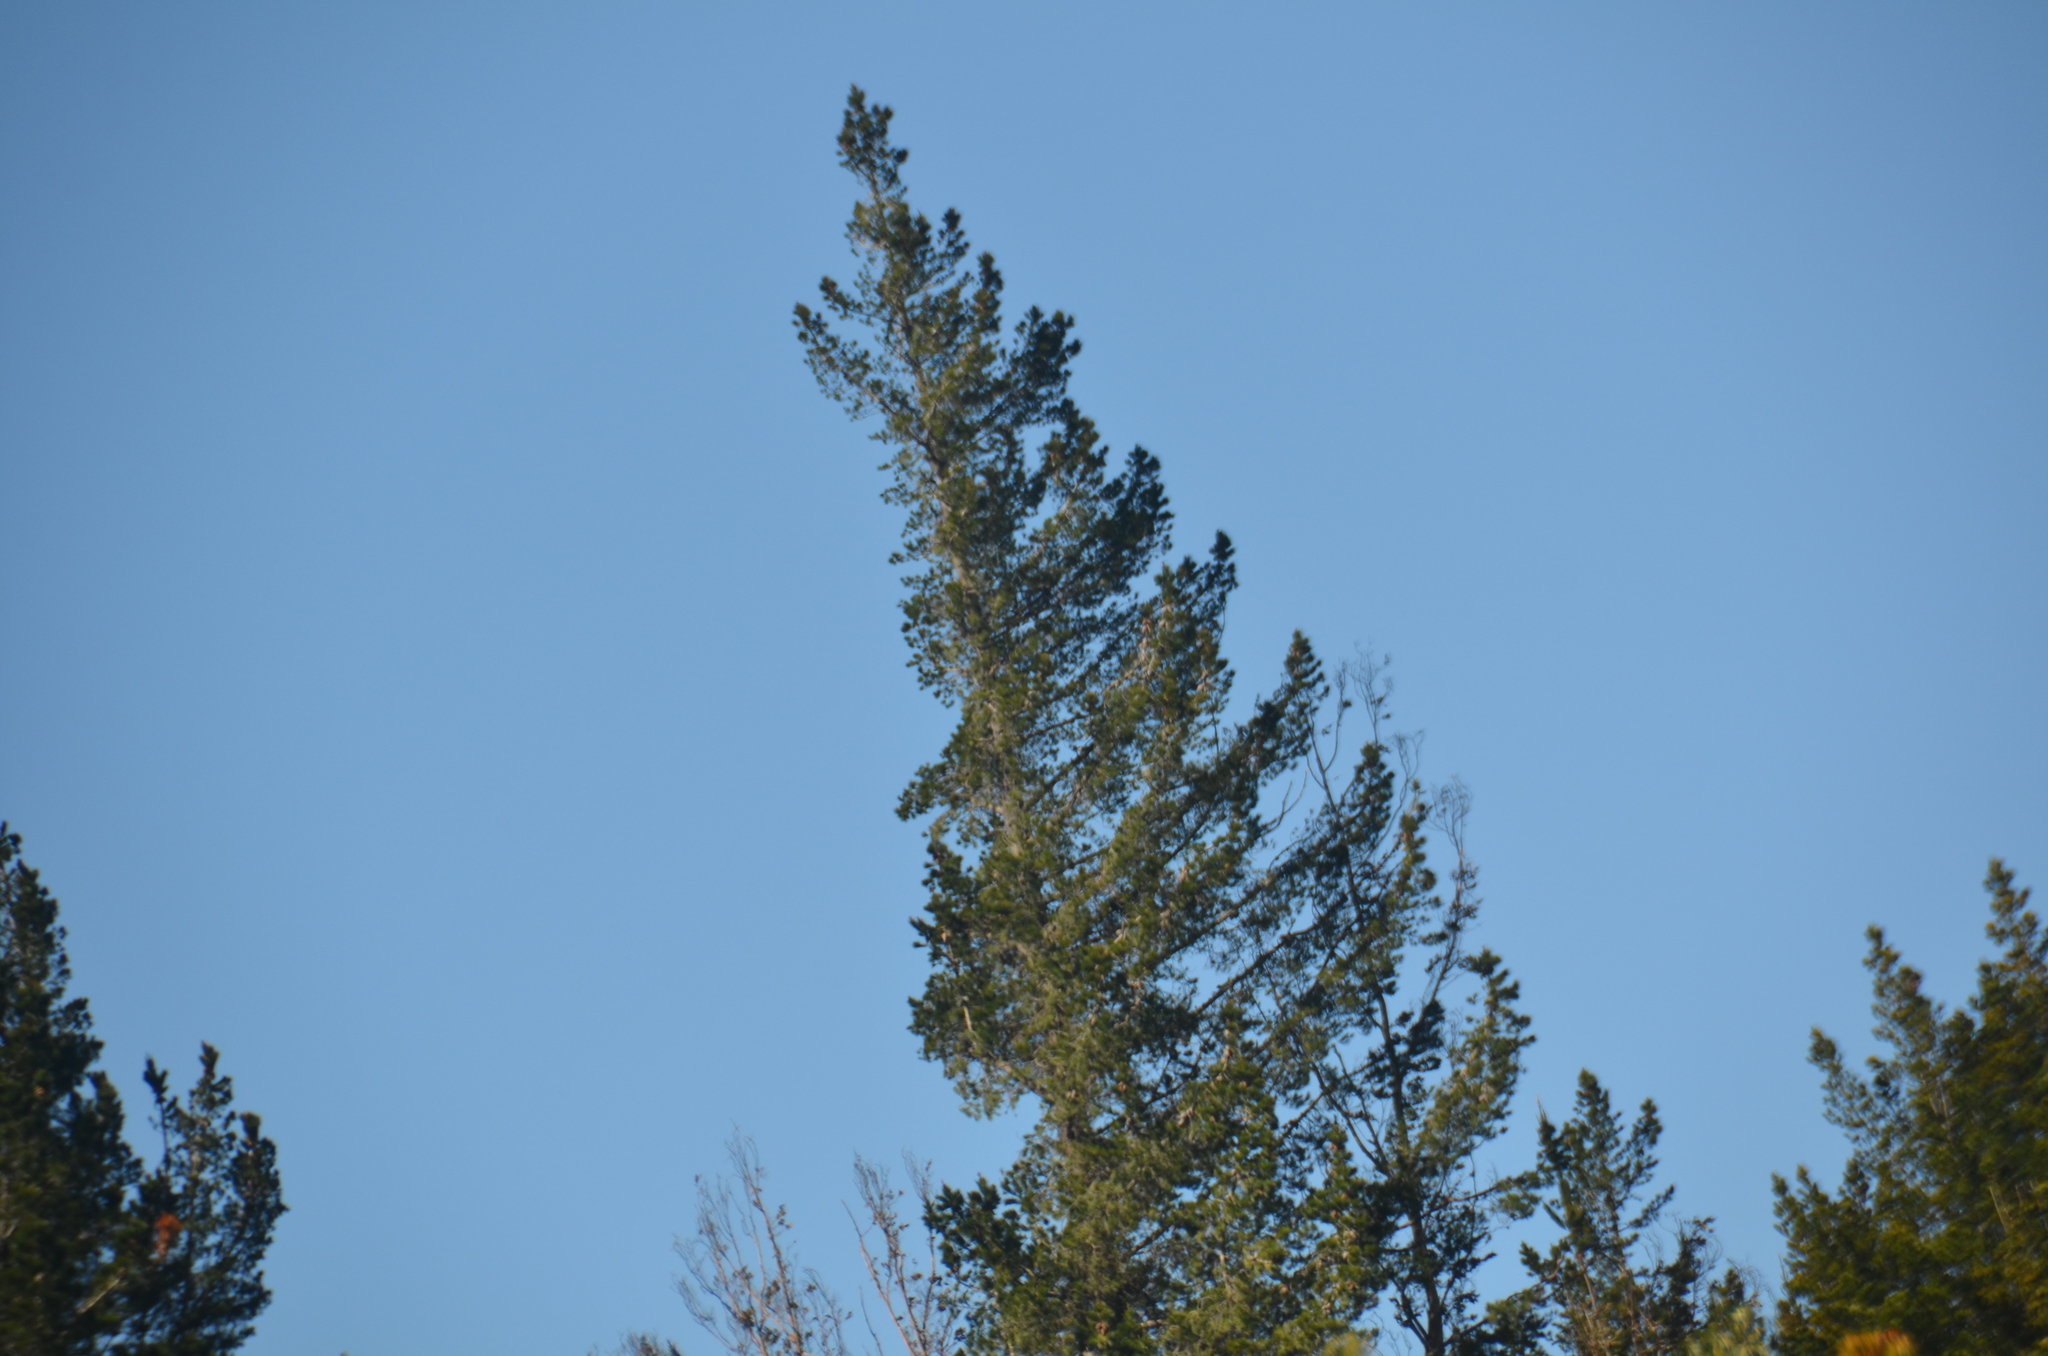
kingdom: Plantae
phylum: Tracheophyta
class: Pinopsida
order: Pinales
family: Pinaceae
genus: Pinus
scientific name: Pinus radiata
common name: Monterey pine
